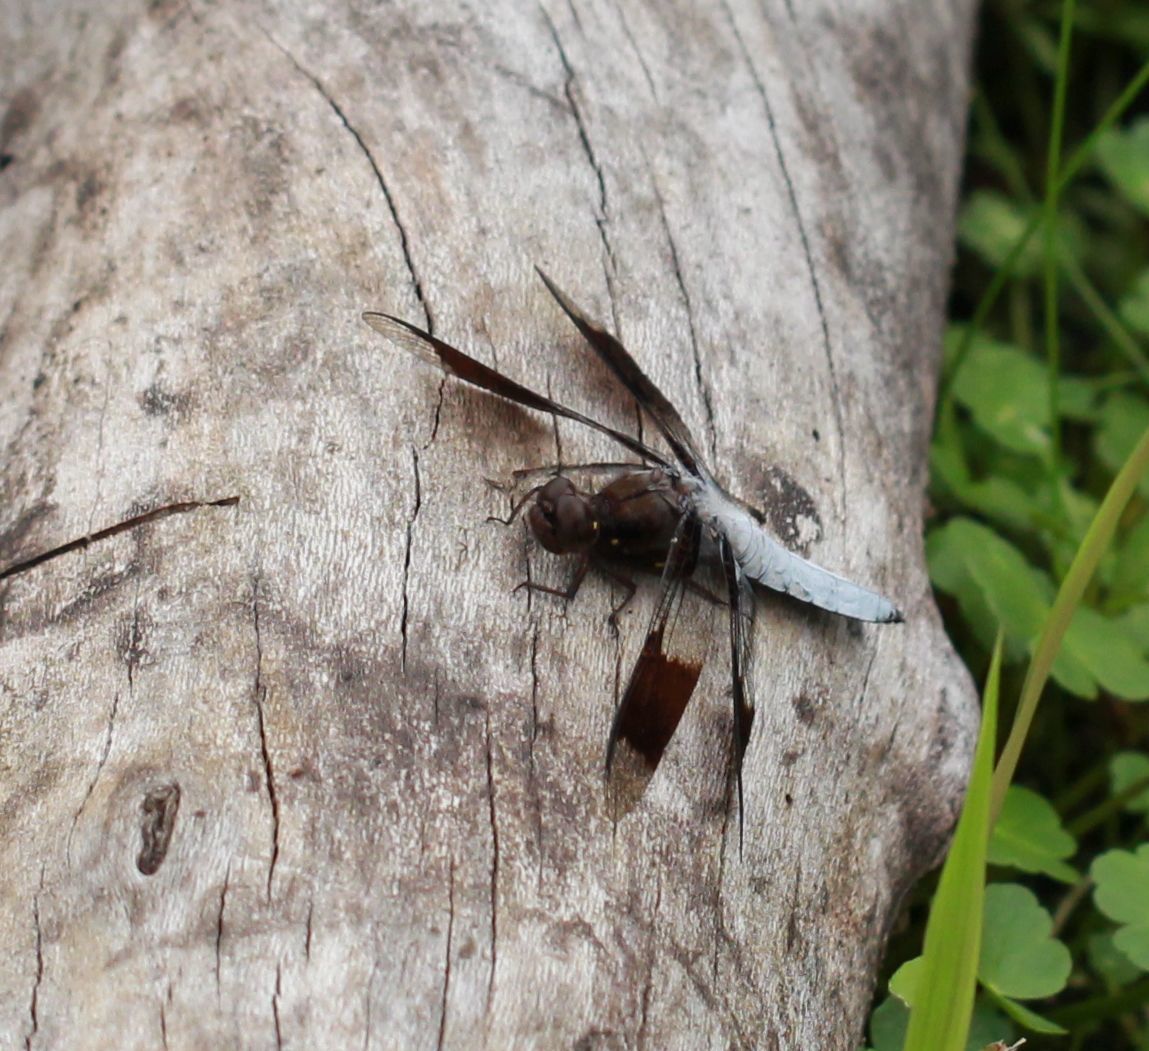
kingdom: Animalia
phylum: Arthropoda
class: Insecta
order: Odonata
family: Libellulidae
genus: Plathemis
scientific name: Plathemis lydia
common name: Common whitetail
